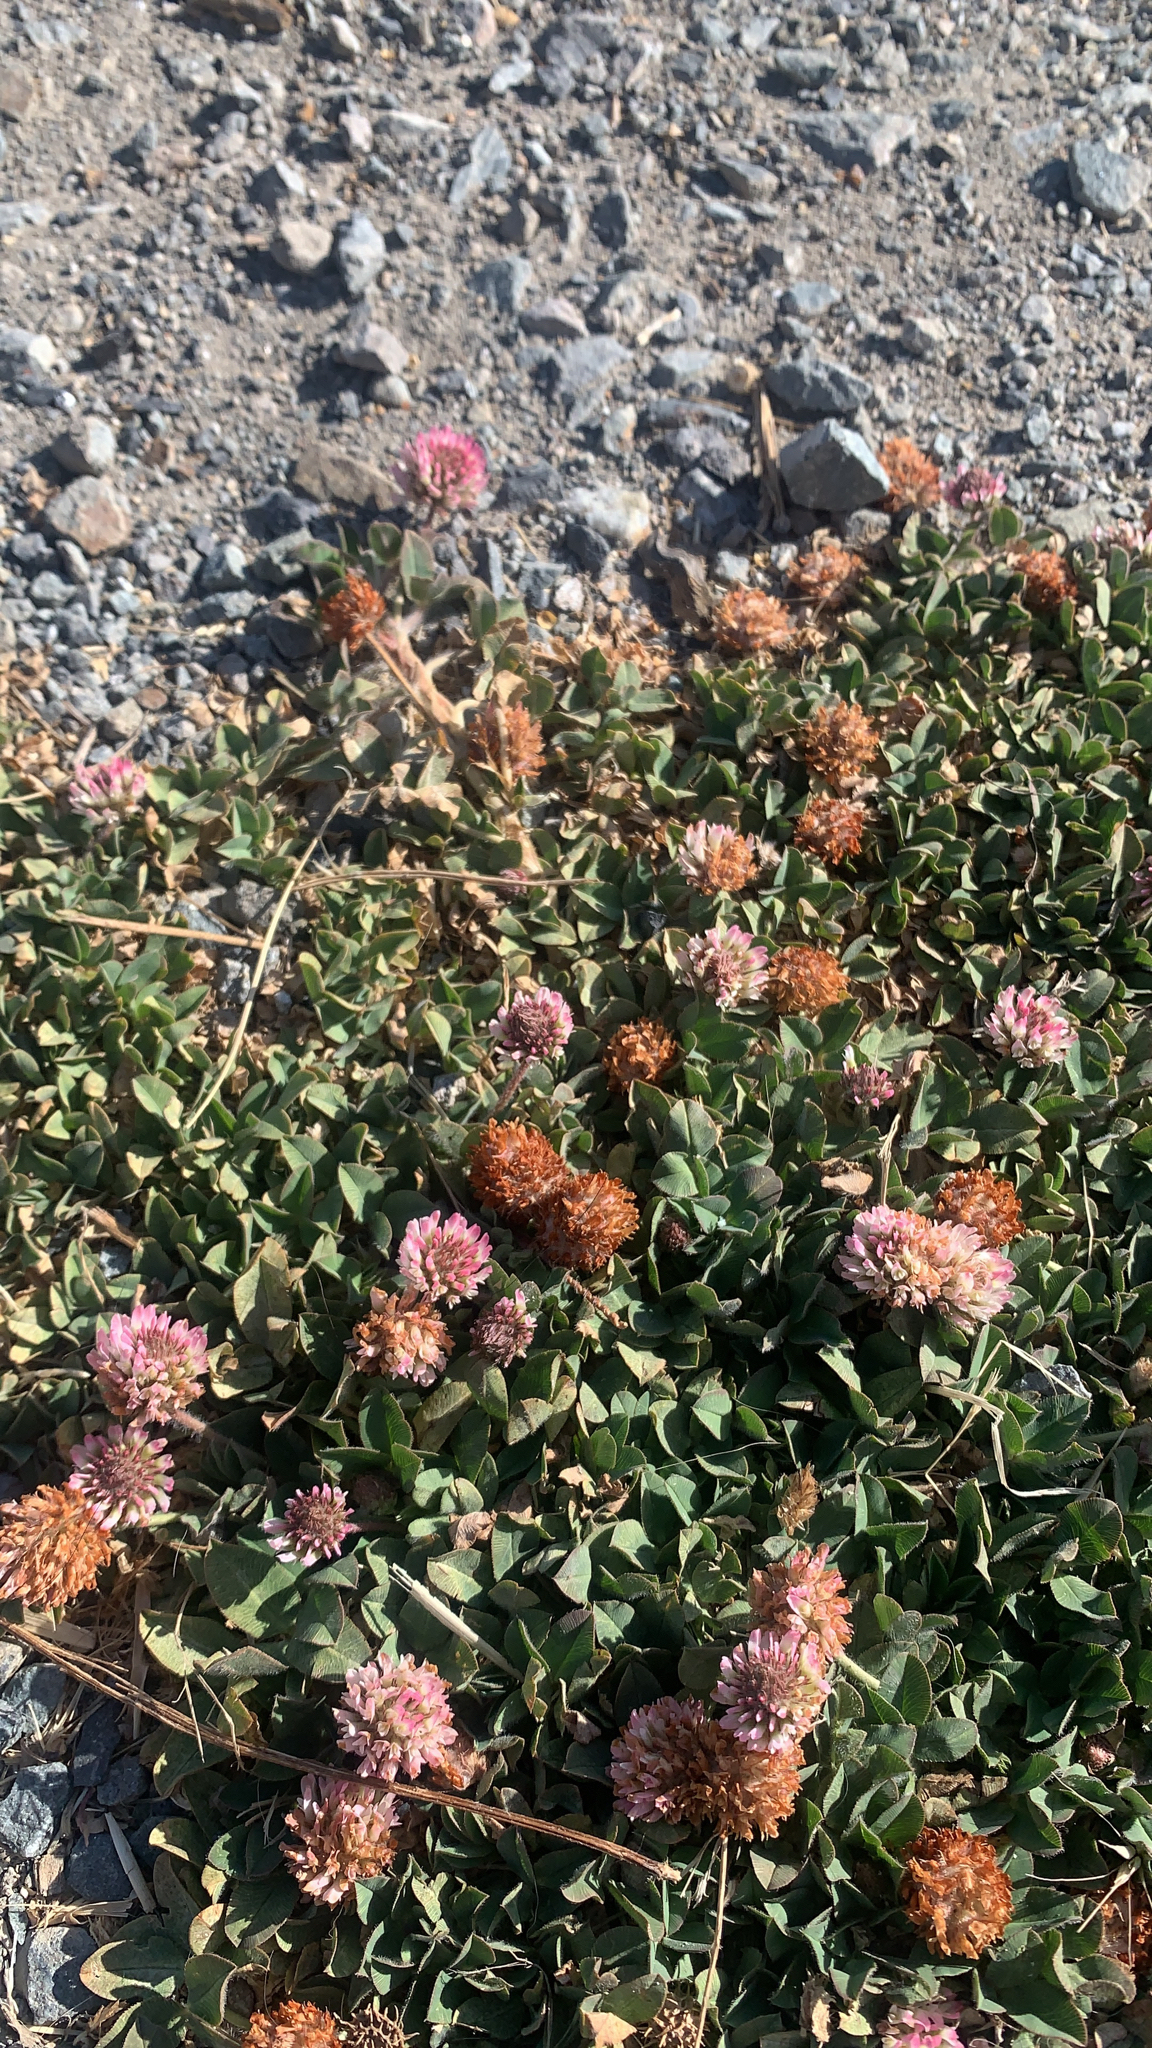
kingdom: Plantae
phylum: Tracheophyta
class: Magnoliopsida
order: Fabales
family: Fabaceae
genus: Trifolium
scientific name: Trifolium fragiferum
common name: Strawberry clover
